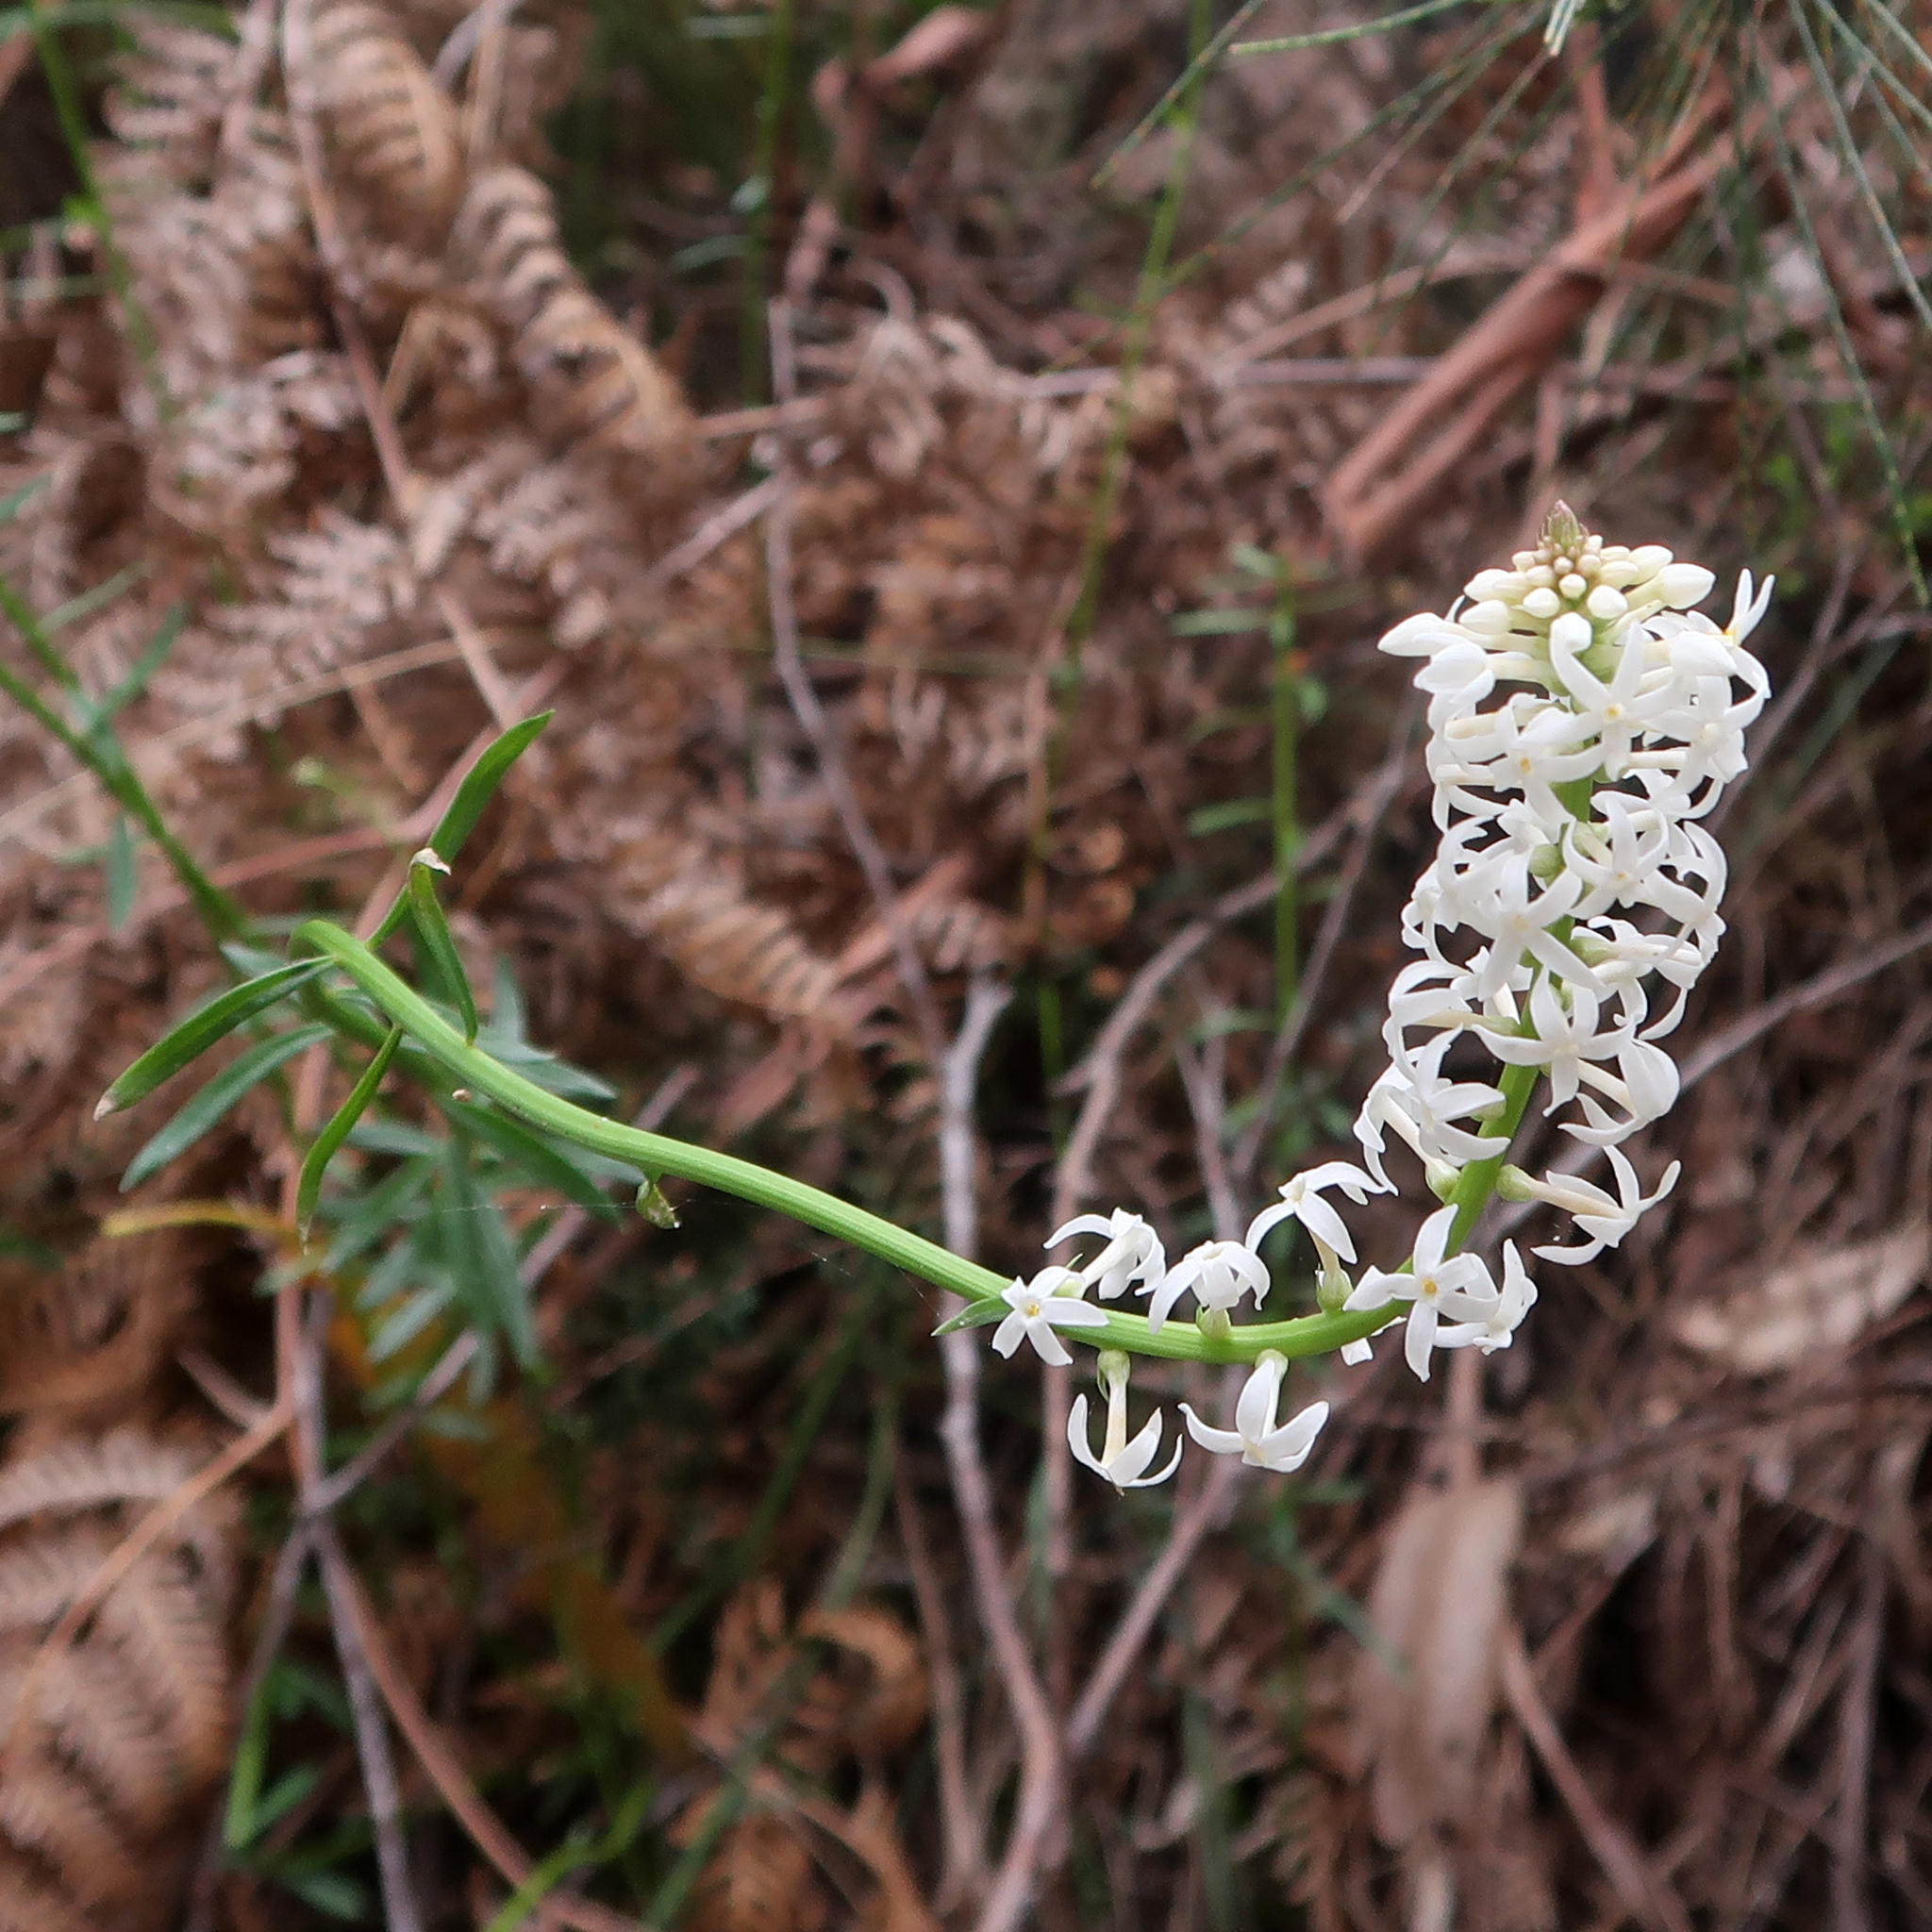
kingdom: Plantae
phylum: Tracheophyta
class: Magnoliopsida
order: Celastrales
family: Celastraceae
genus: Stackhousia
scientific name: Stackhousia monogyna
